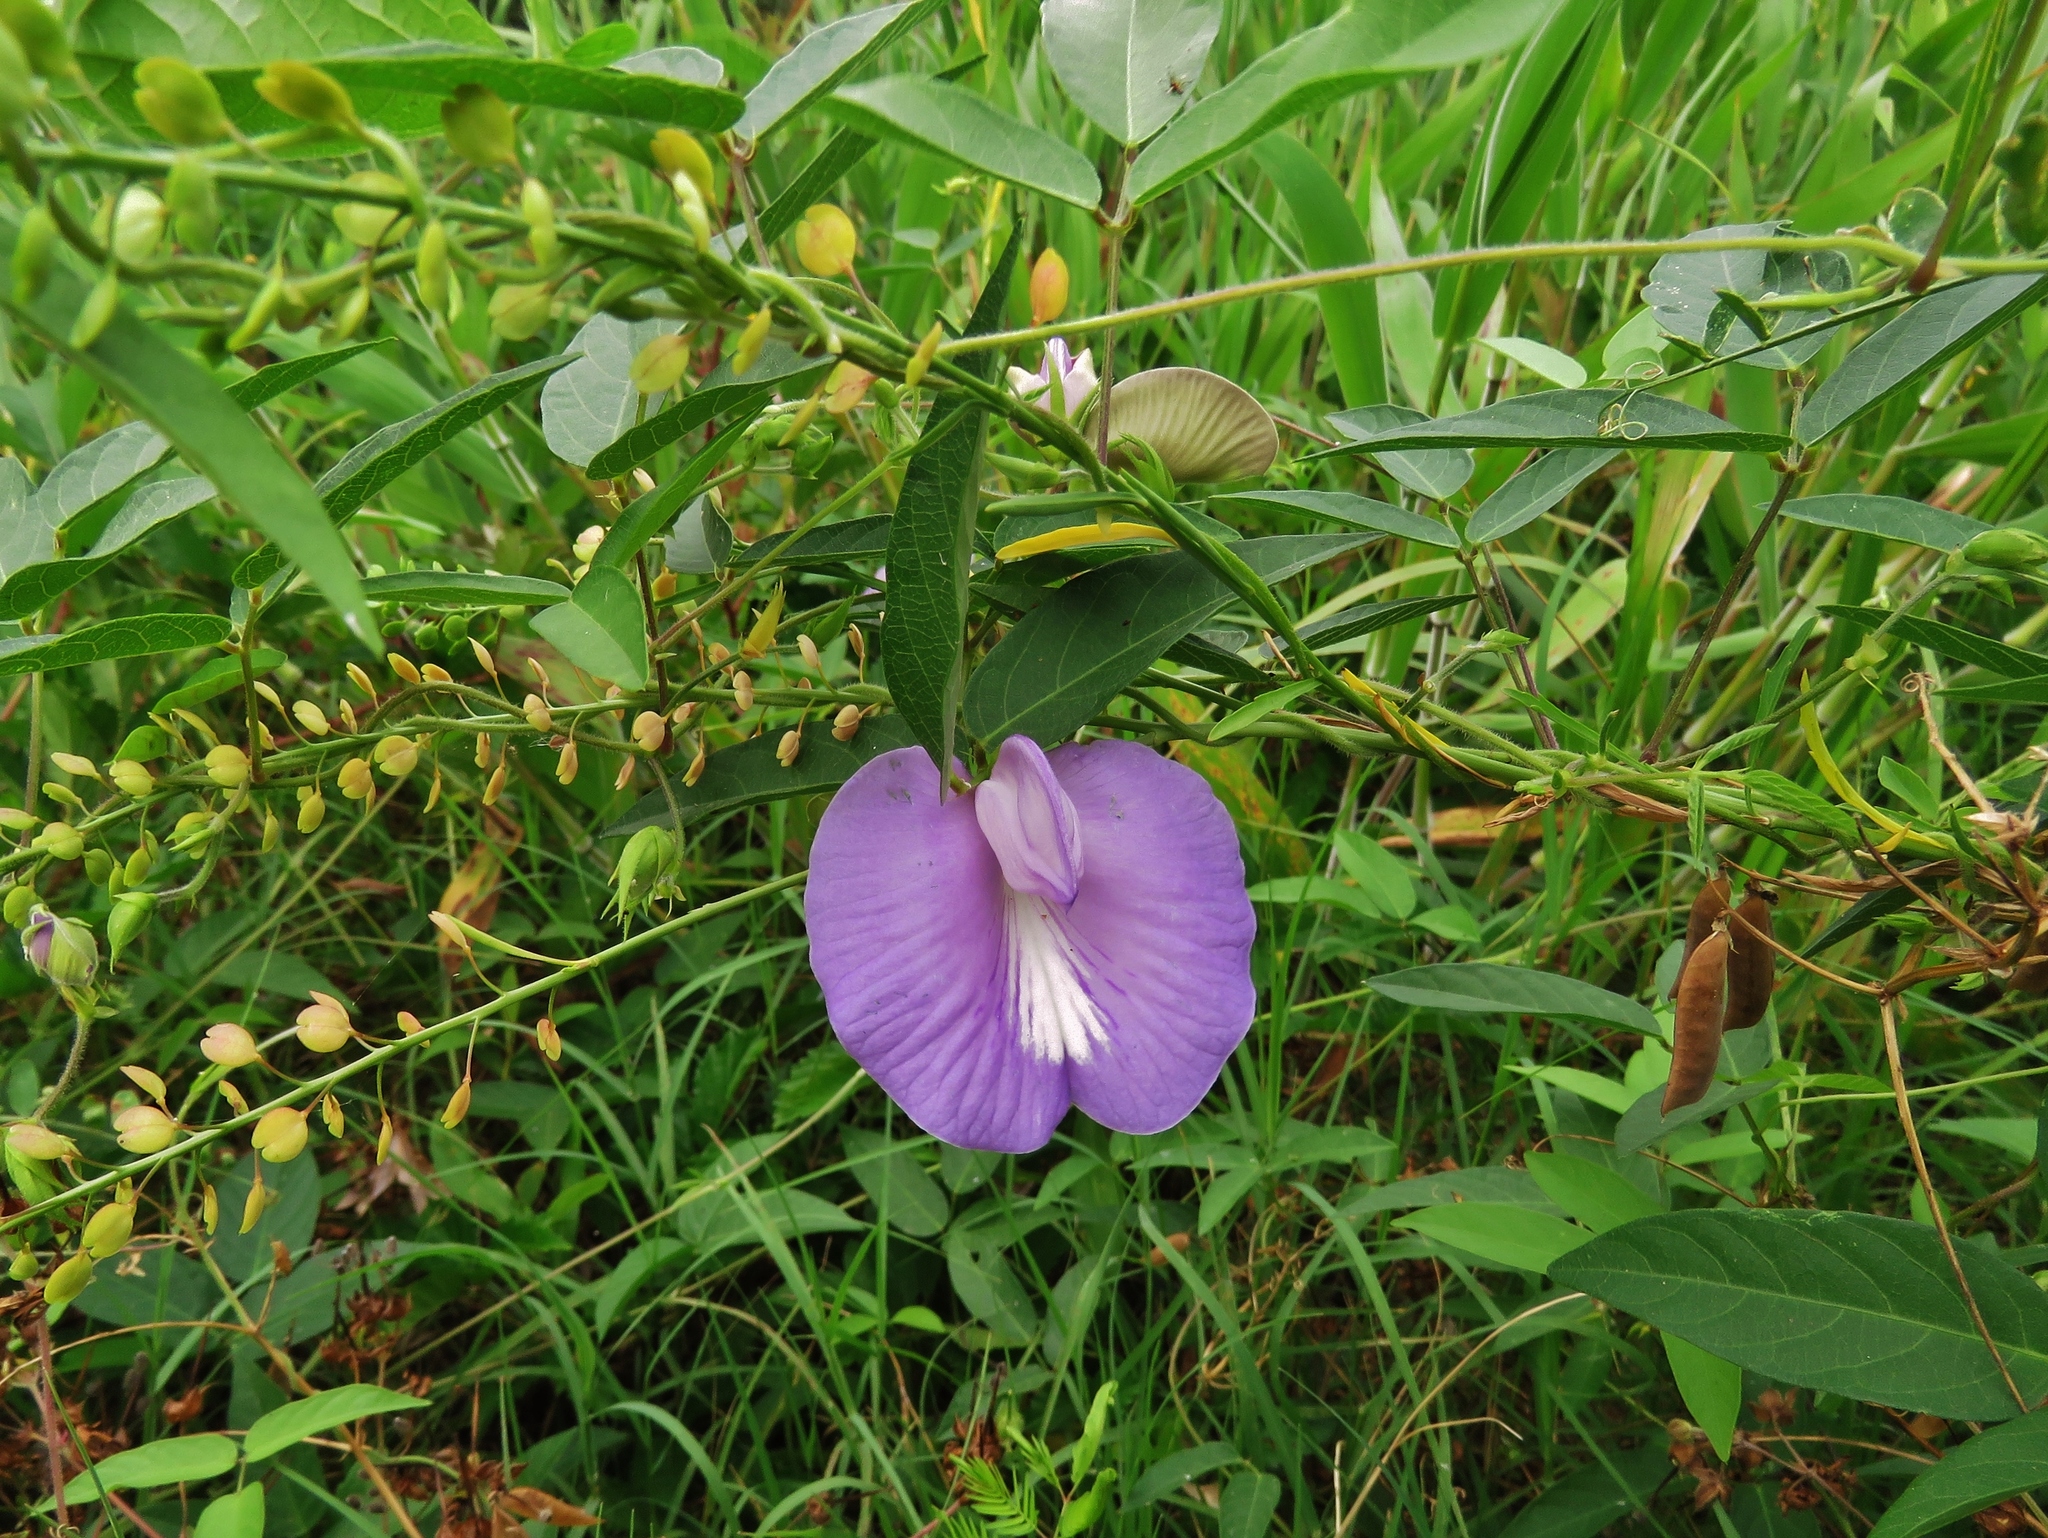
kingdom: Plantae
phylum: Tracheophyta
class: Magnoliopsida
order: Fabales
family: Fabaceae
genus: Centrosema
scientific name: Centrosema virginianum
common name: Butterfly-pea
